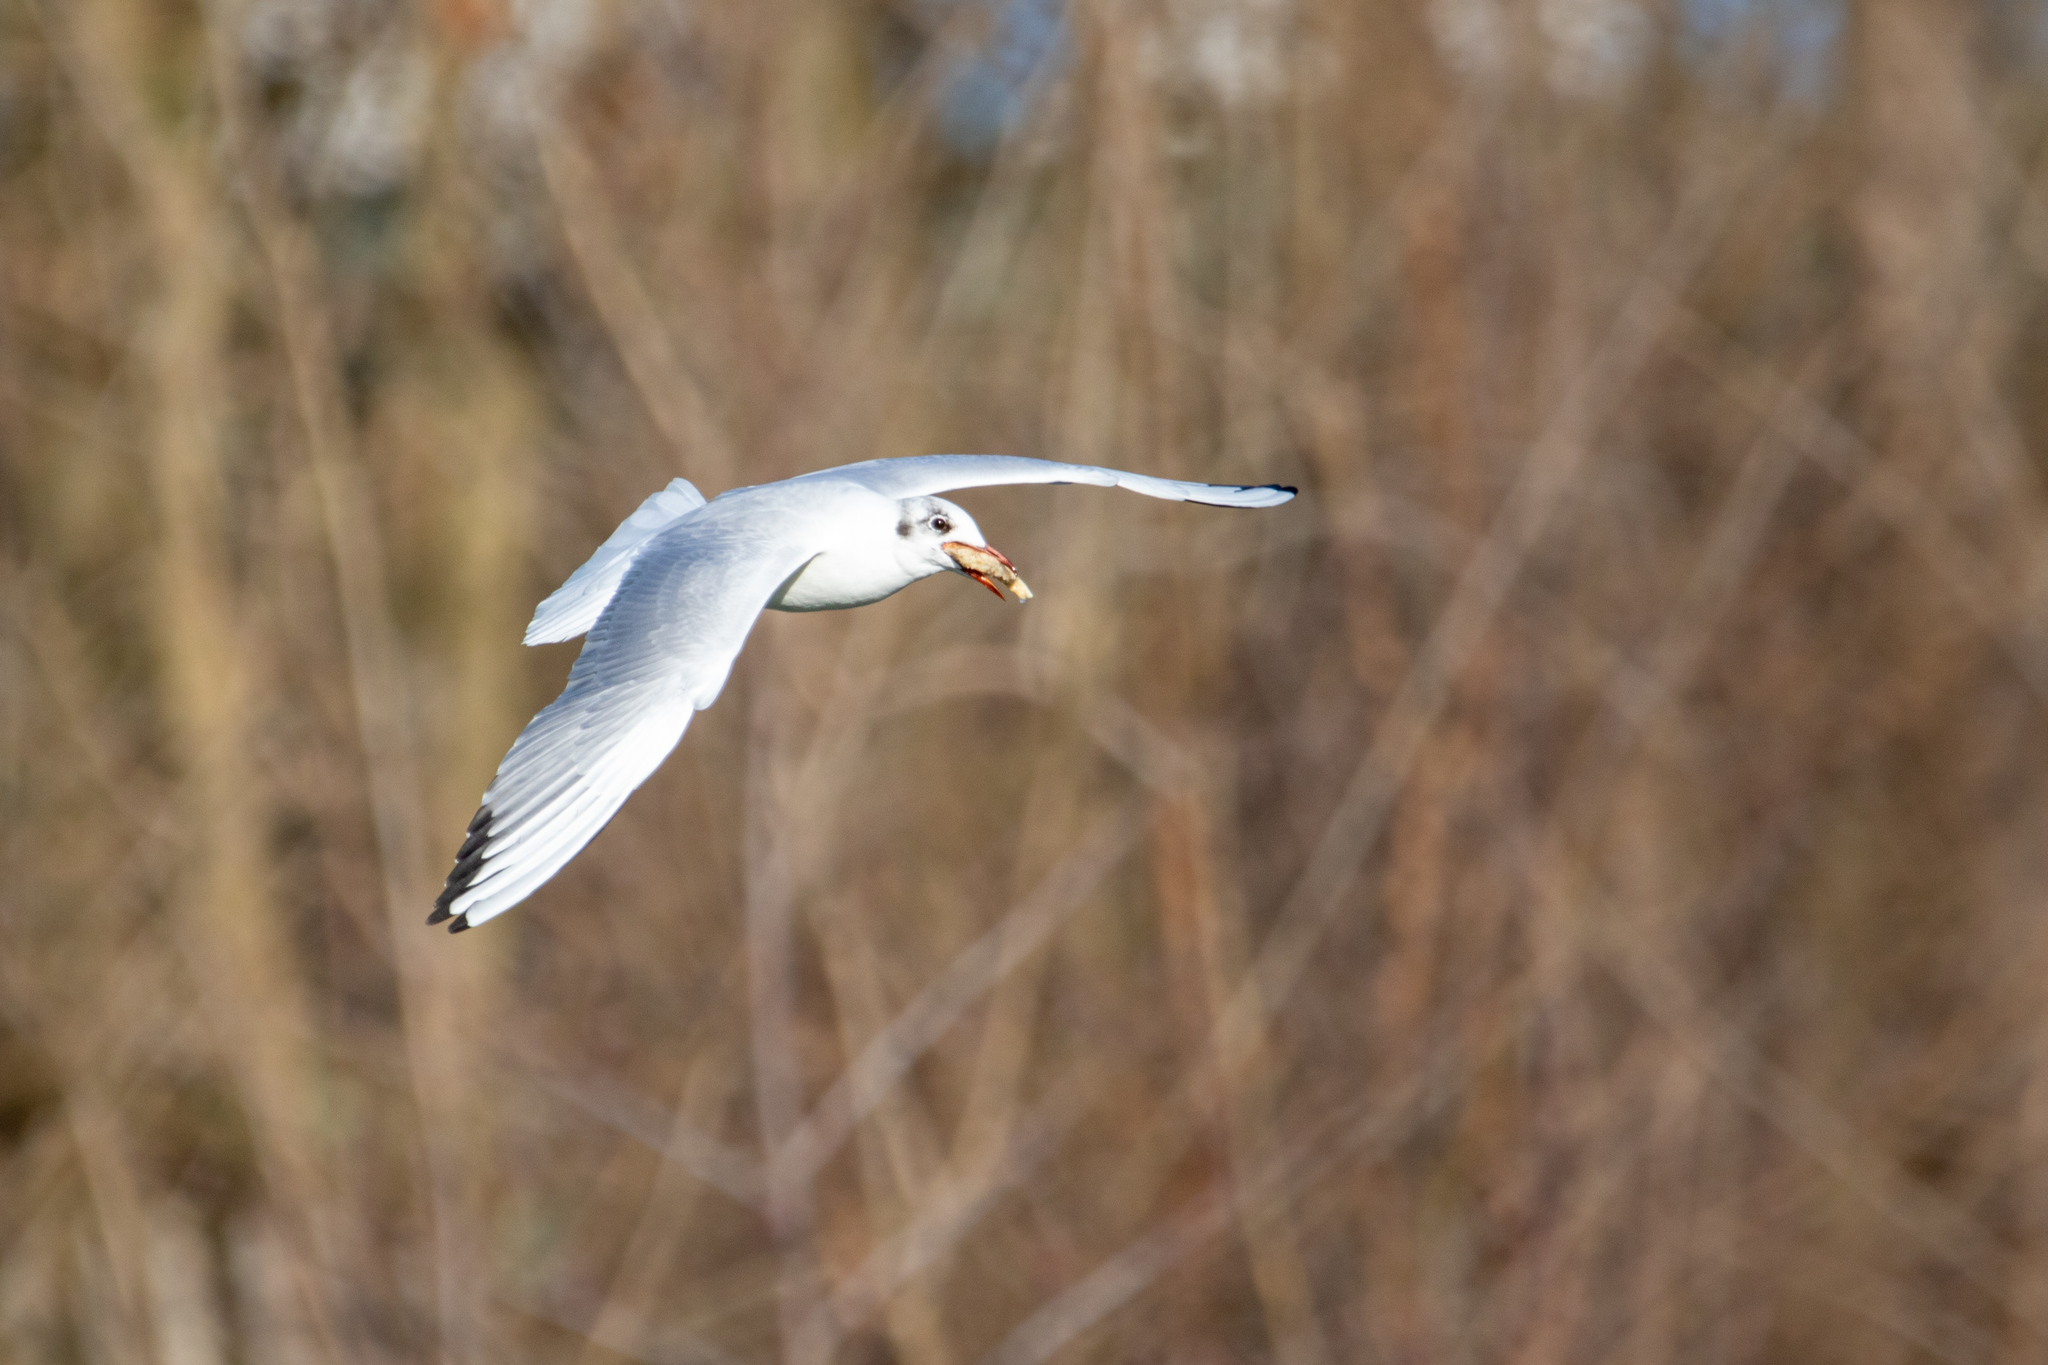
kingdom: Animalia
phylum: Chordata
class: Aves
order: Charadriiformes
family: Laridae
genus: Chroicocephalus
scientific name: Chroicocephalus ridibundus
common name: Black-headed gull
